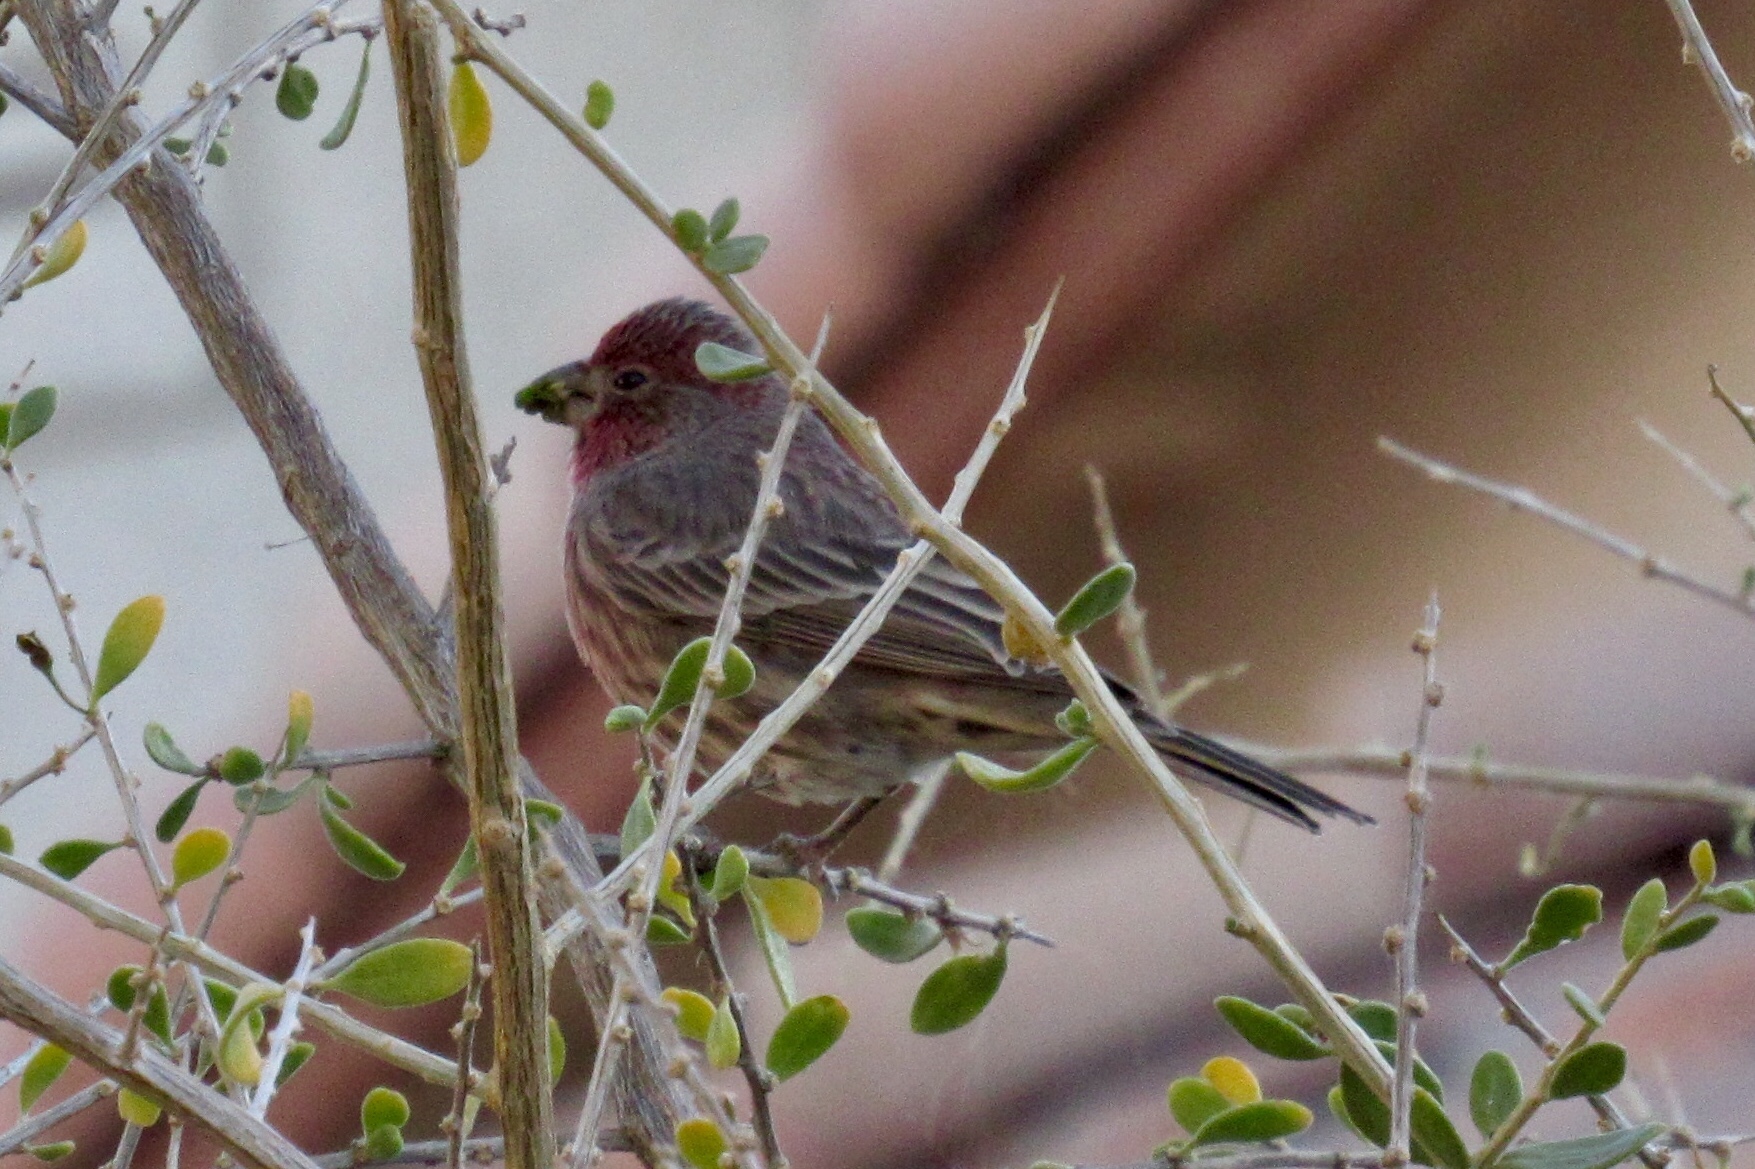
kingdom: Animalia
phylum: Chordata
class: Aves
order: Passeriformes
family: Fringillidae
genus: Haemorhous
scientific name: Haemorhous mexicanus
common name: House finch
